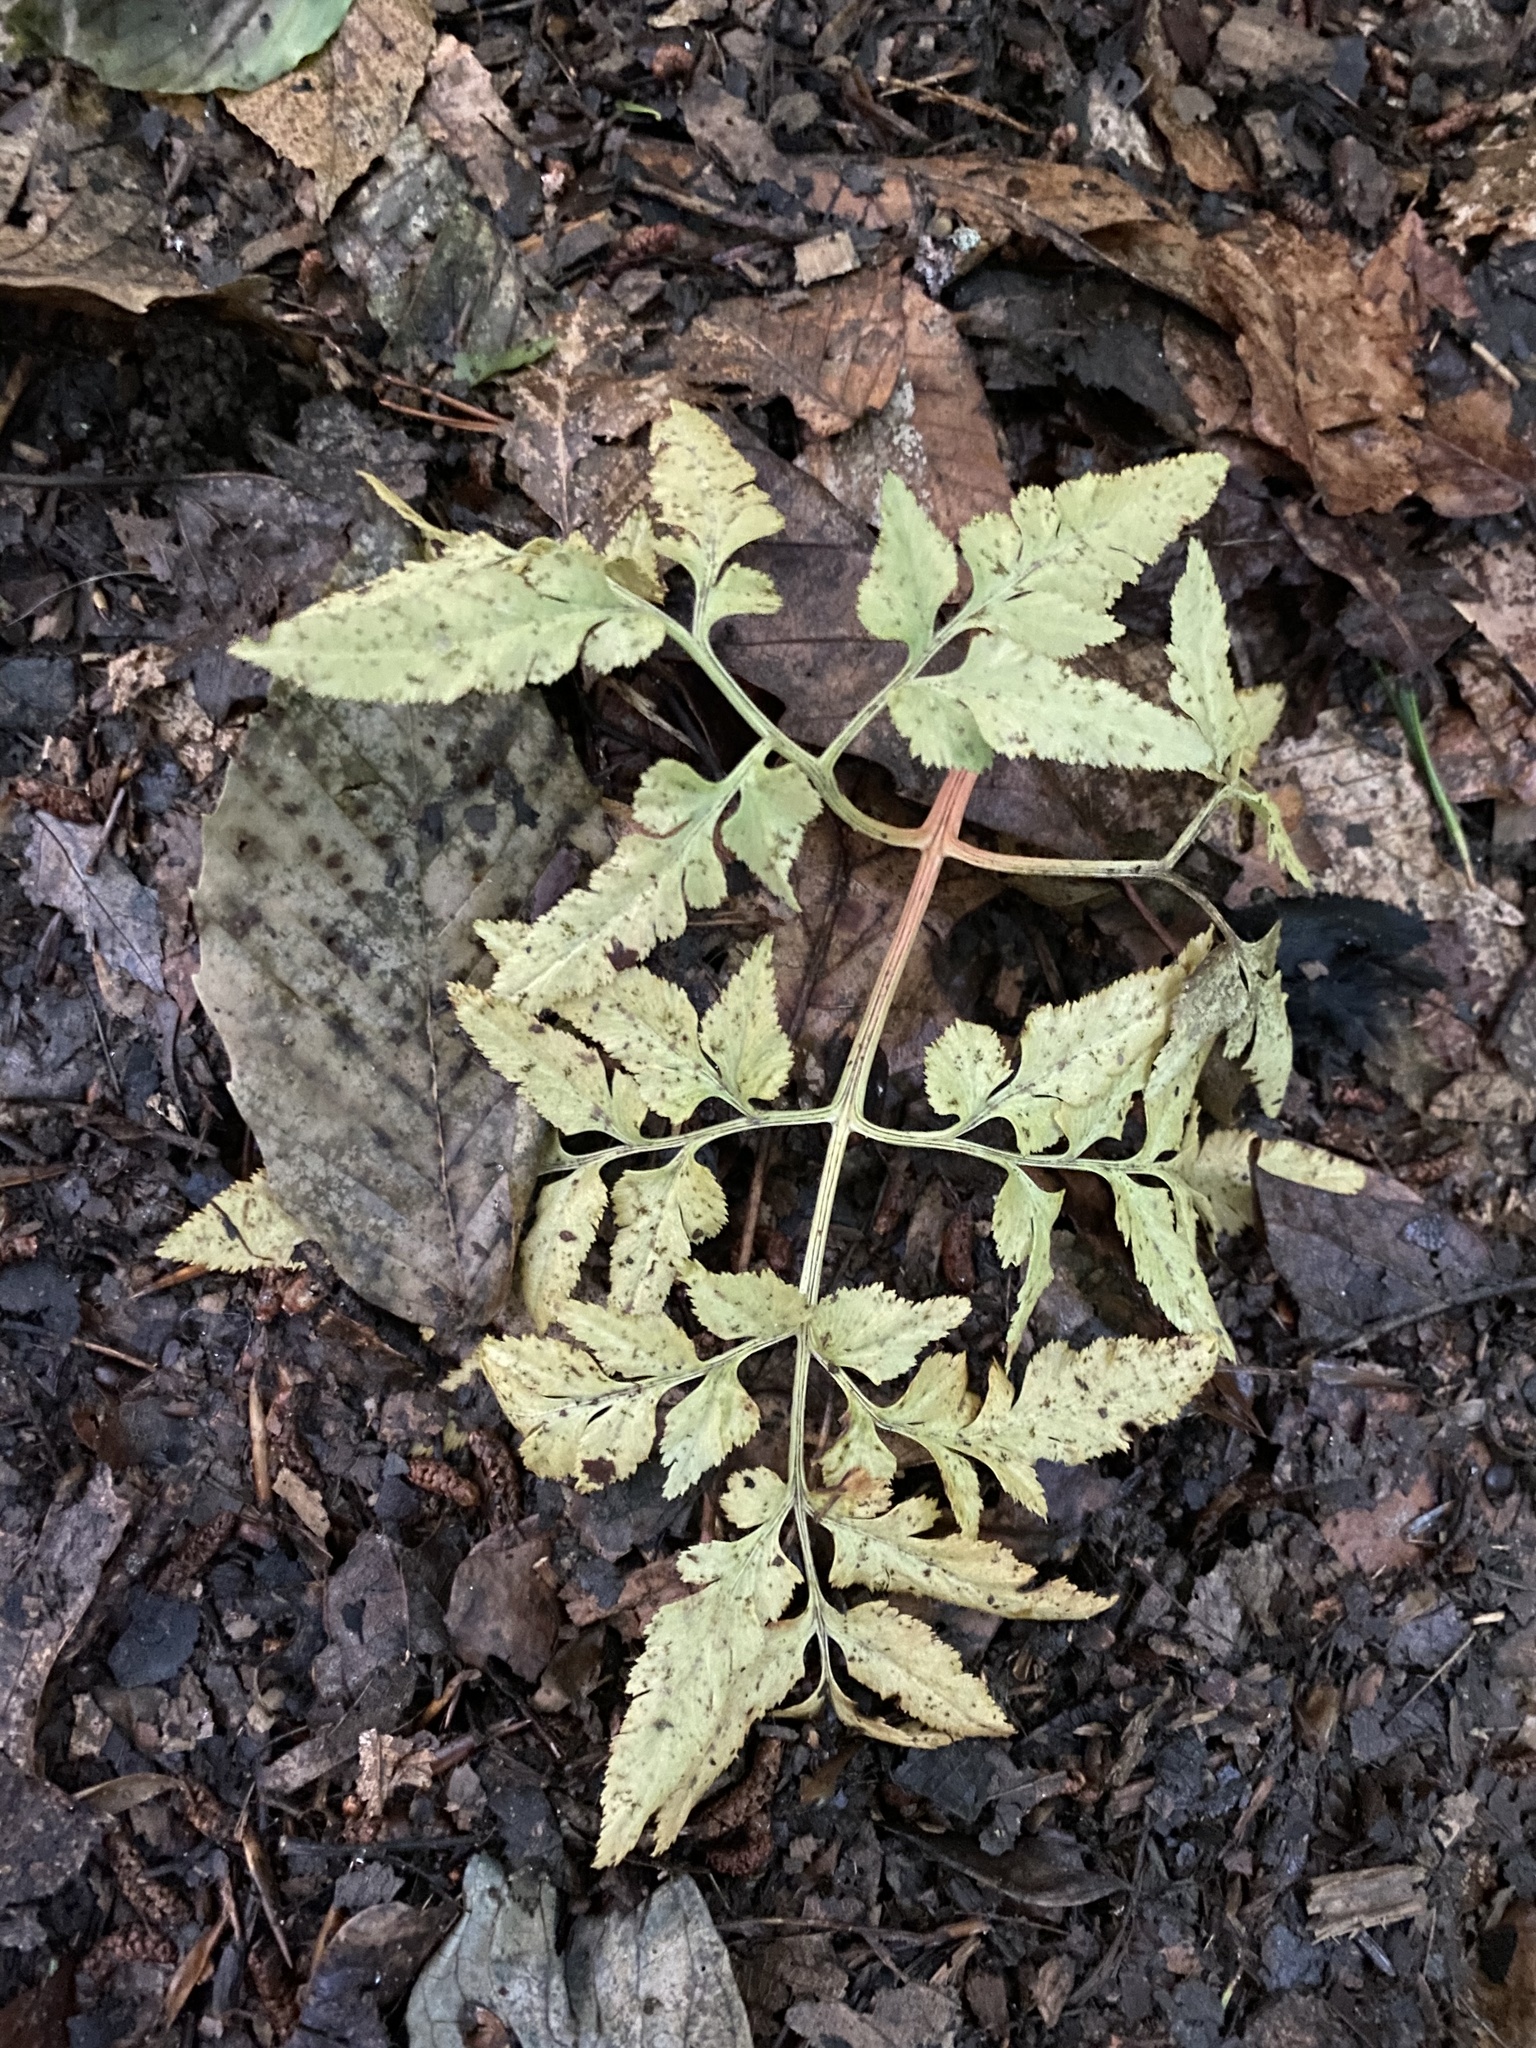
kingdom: Plantae
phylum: Tracheophyta
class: Polypodiopsida
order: Ophioglossales
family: Ophioglossaceae
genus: Sceptridium
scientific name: Sceptridium dissectum
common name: Cut-leaved grapefern
